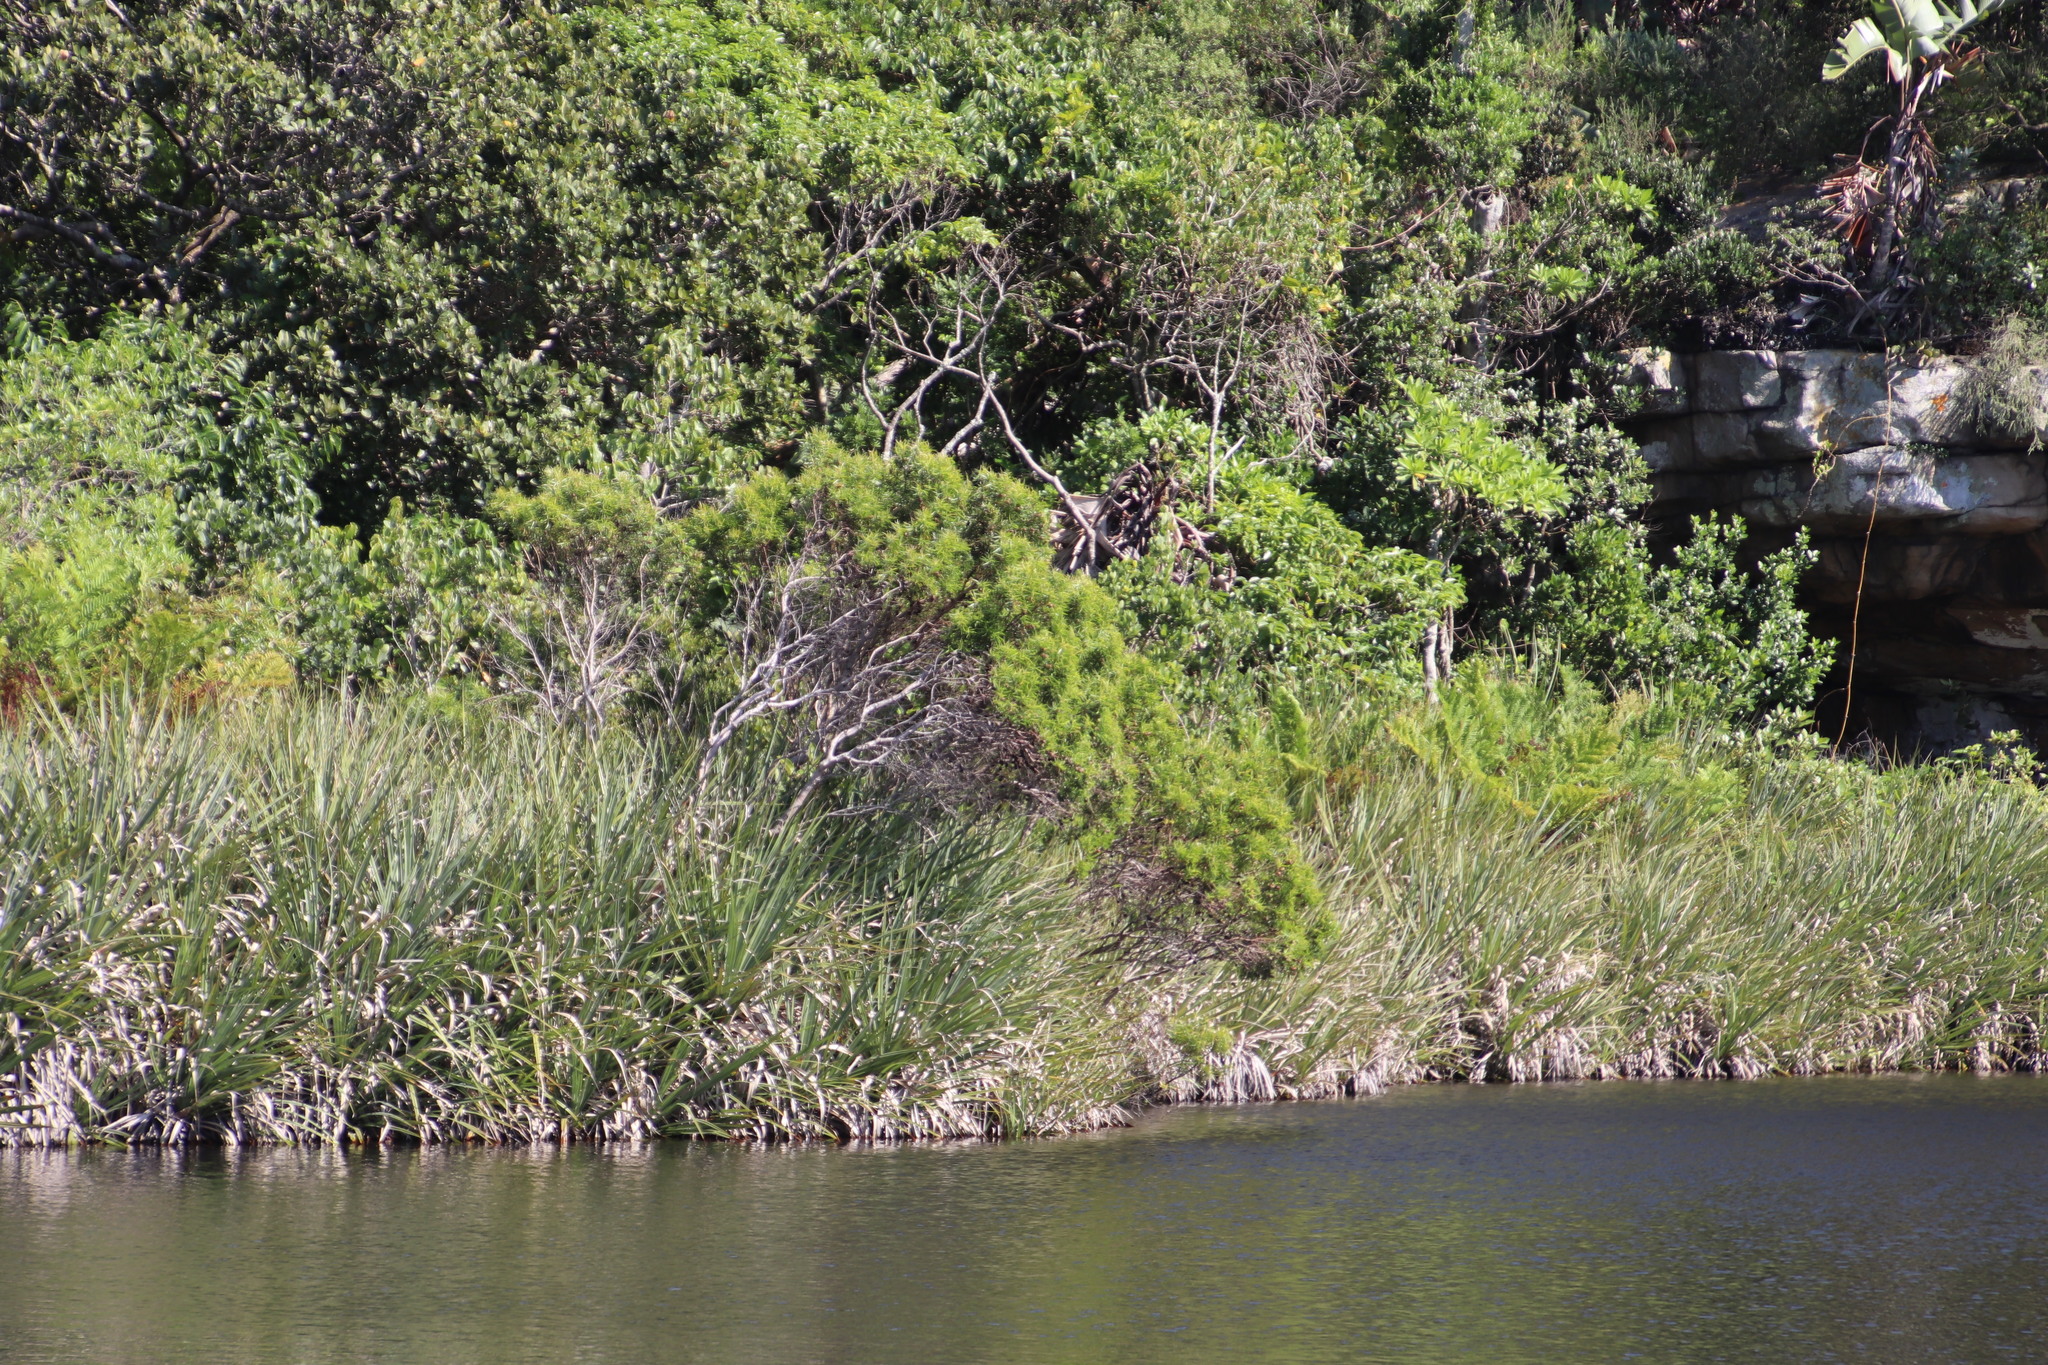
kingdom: Plantae
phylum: Tracheophyta
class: Magnoliopsida
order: Proteales
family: Proteaceae
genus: Leucadendron
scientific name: Leucadendron pondoense
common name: Pondoland conebush
